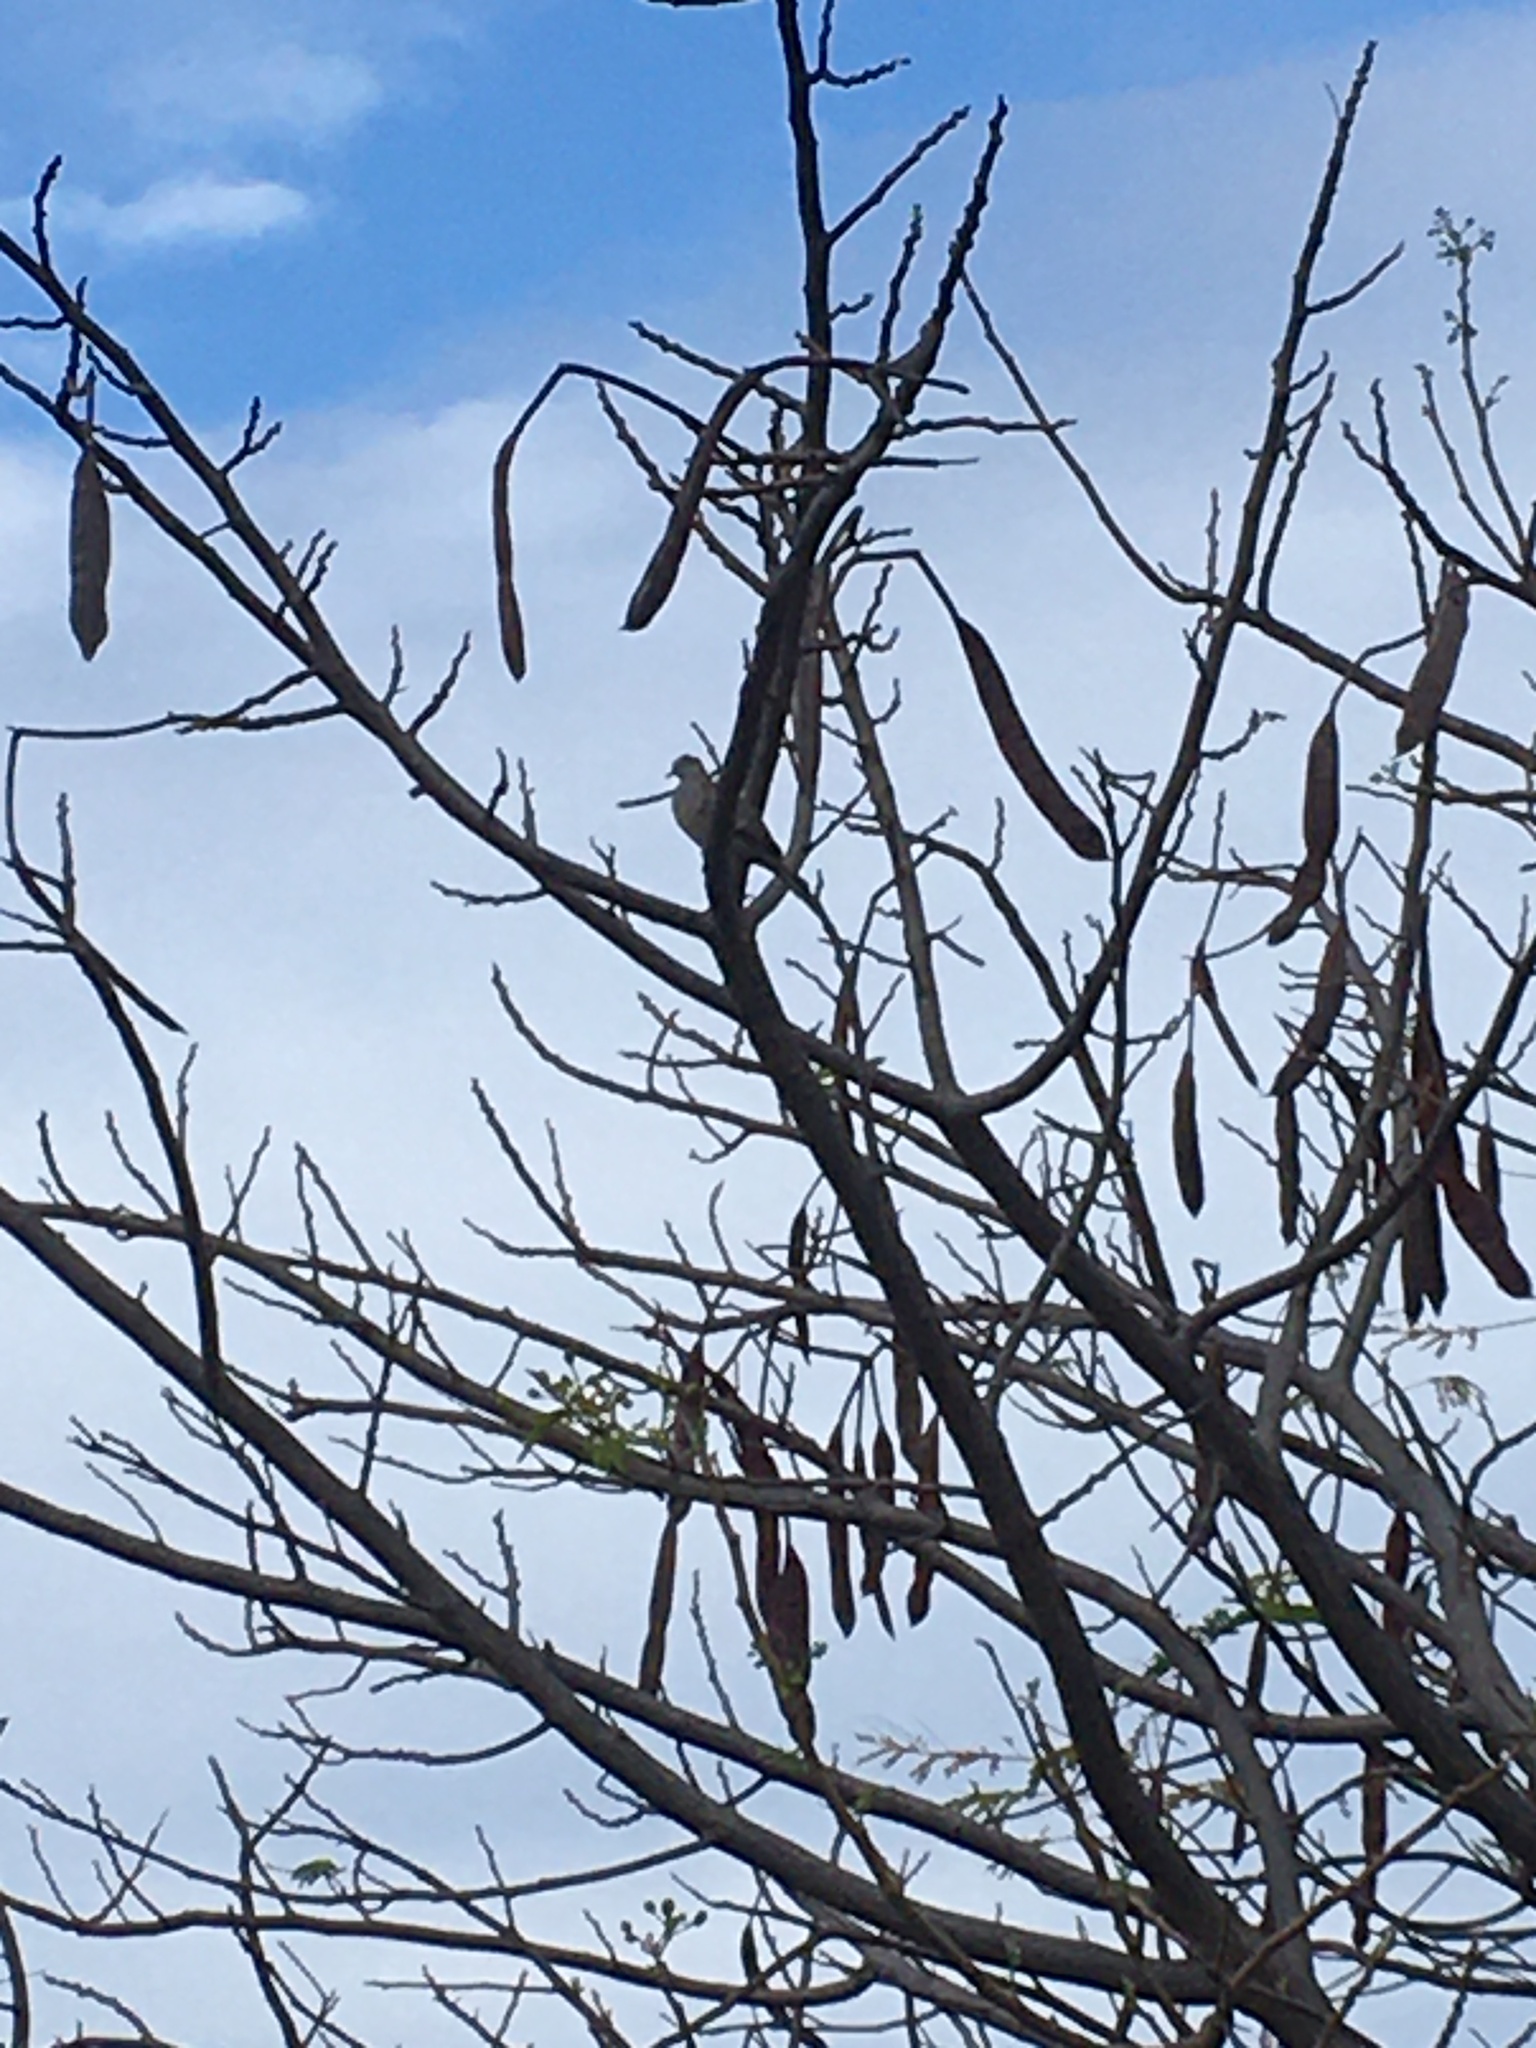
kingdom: Animalia
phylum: Chordata
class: Aves
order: Columbiformes
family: Columbidae
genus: Geopelia
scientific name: Geopelia striata
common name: Zebra dove
